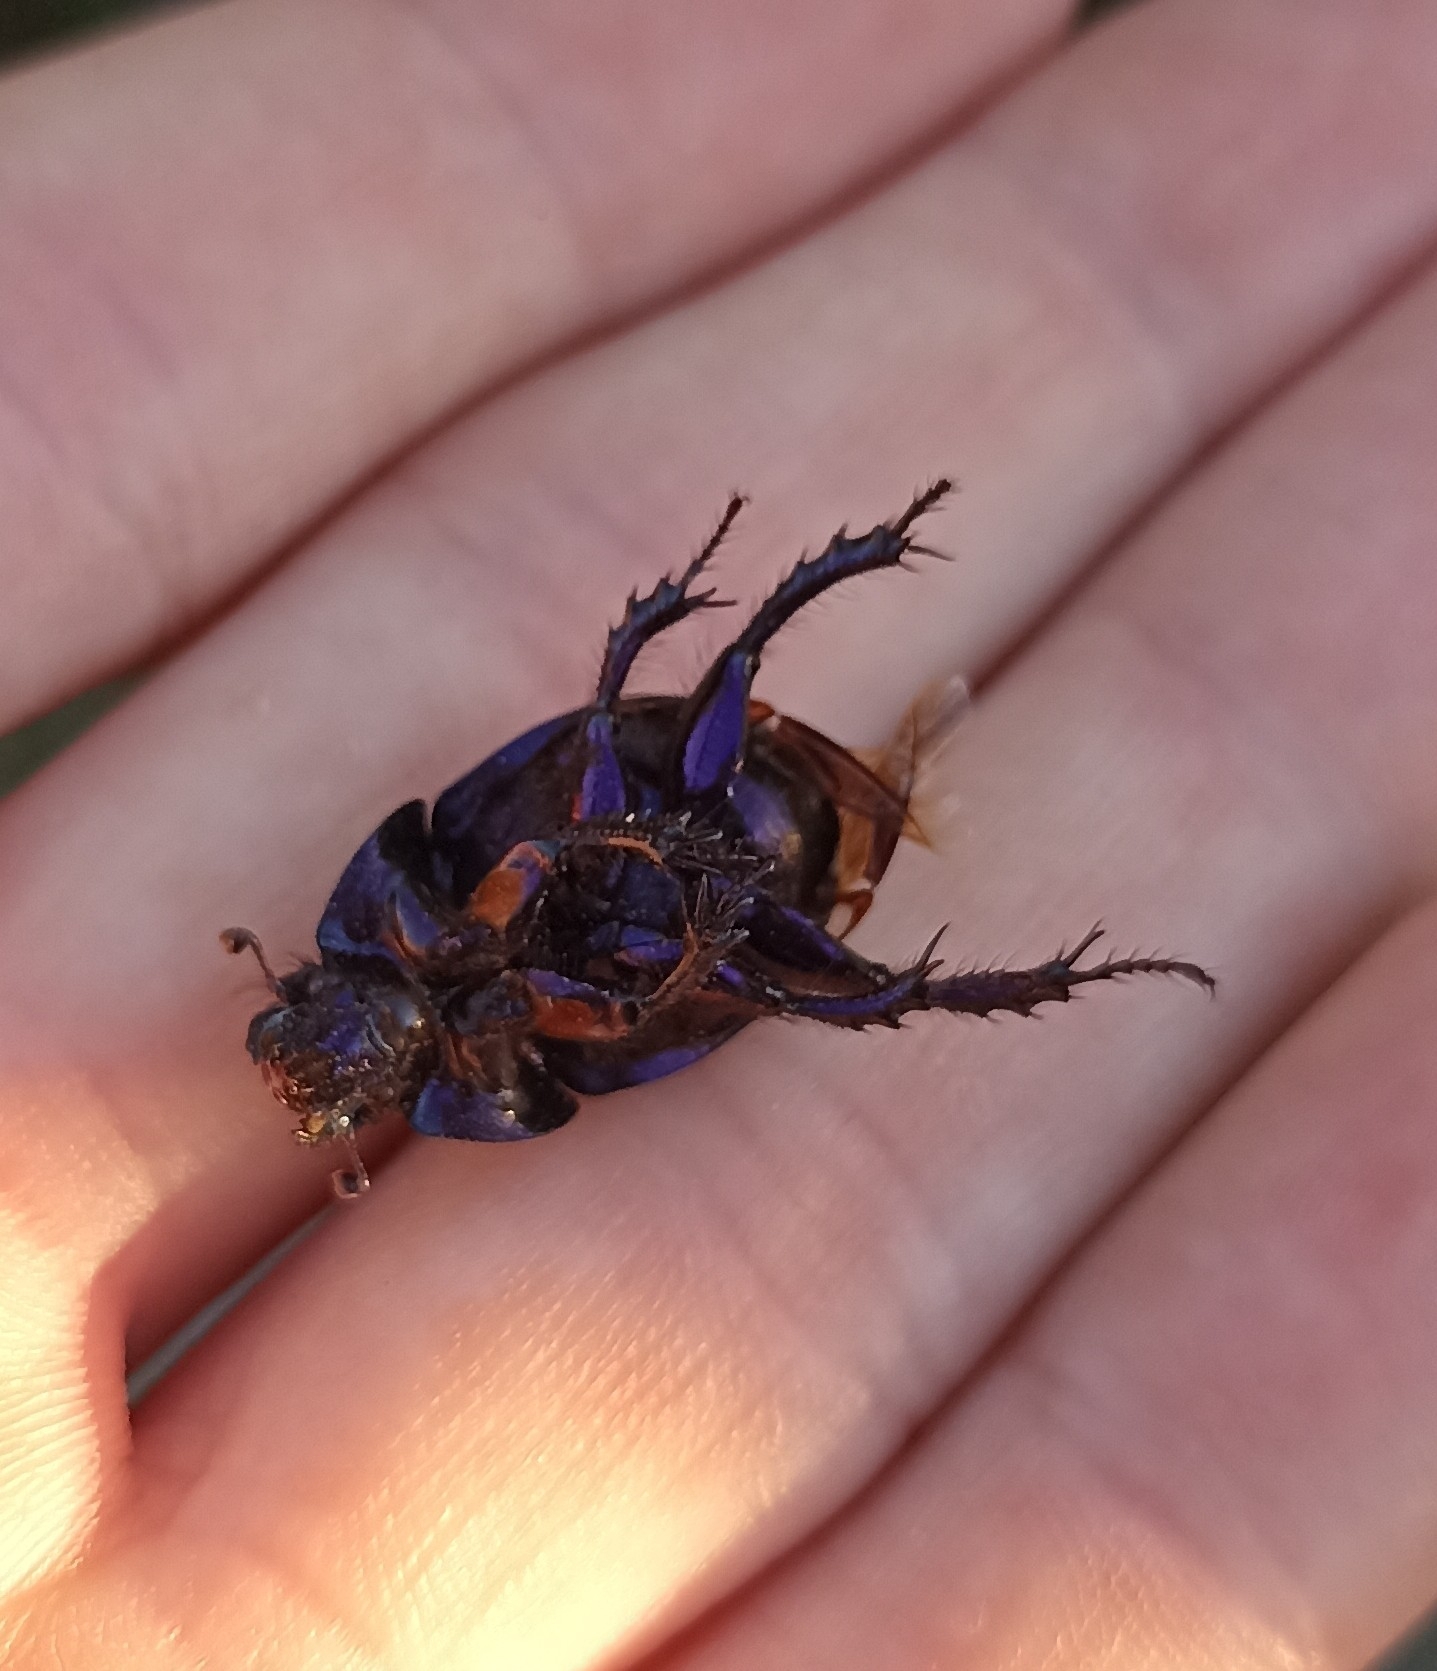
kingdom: Animalia
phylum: Arthropoda
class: Insecta
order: Coleoptera
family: Geotrupidae
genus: Anoplotrupes
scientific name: Anoplotrupes stercorosus
